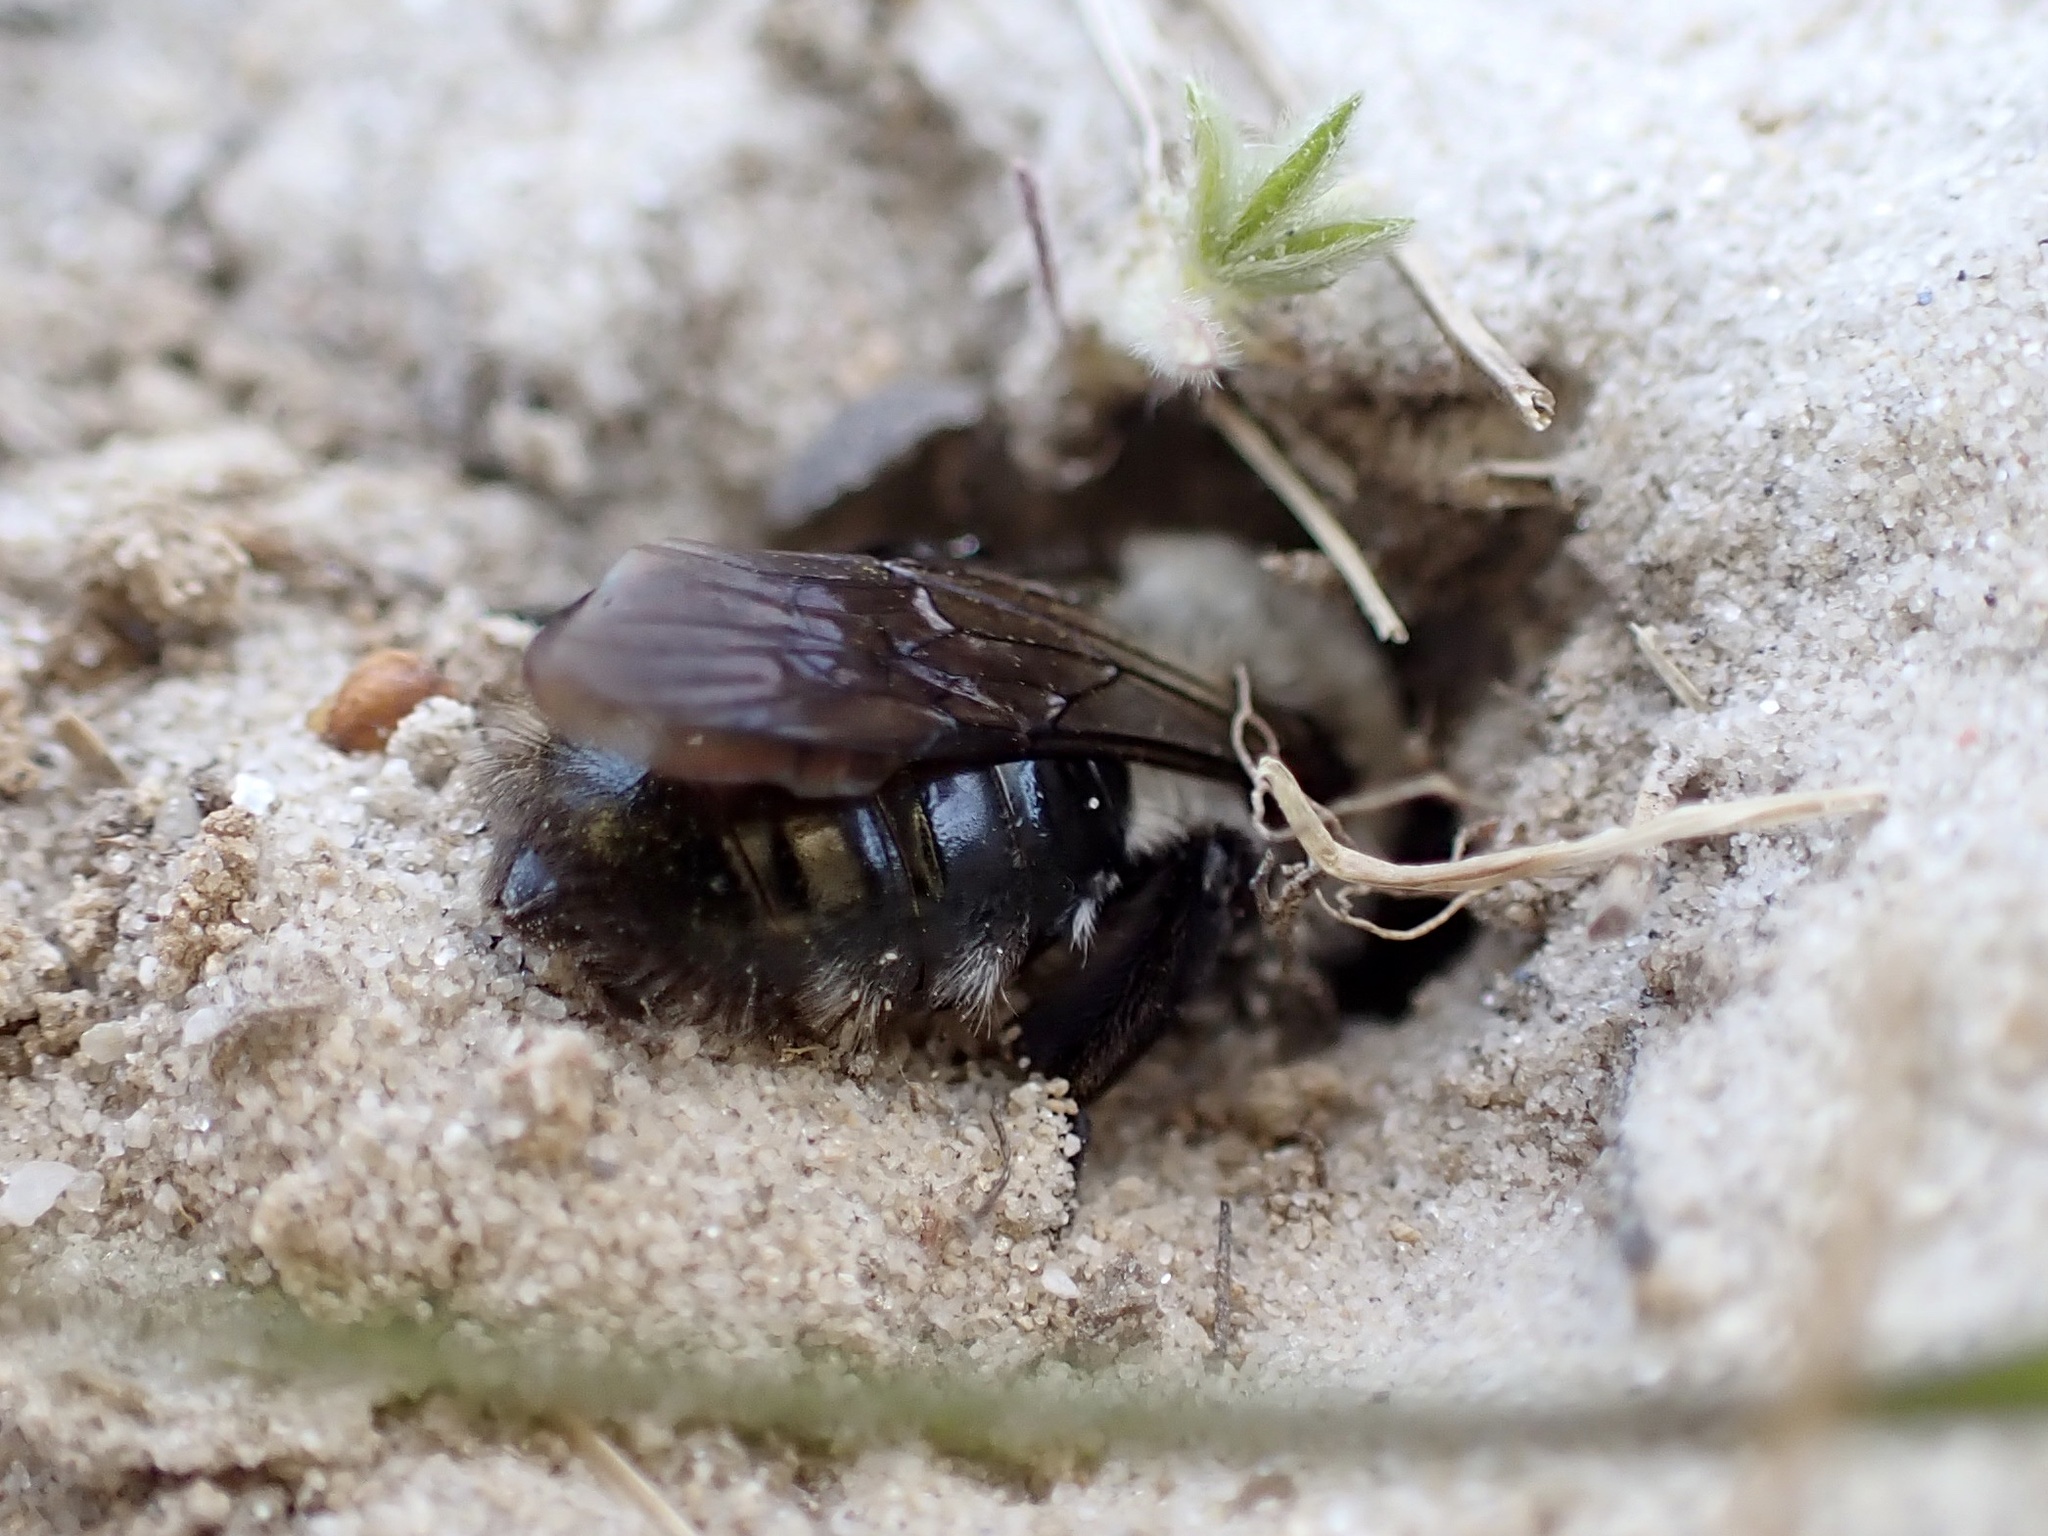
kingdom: Animalia
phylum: Arthropoda
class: Insecta
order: Hymenoptera
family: Andrenidae
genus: Andrena
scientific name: Andrena vaga
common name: Grey-backed mining bee
